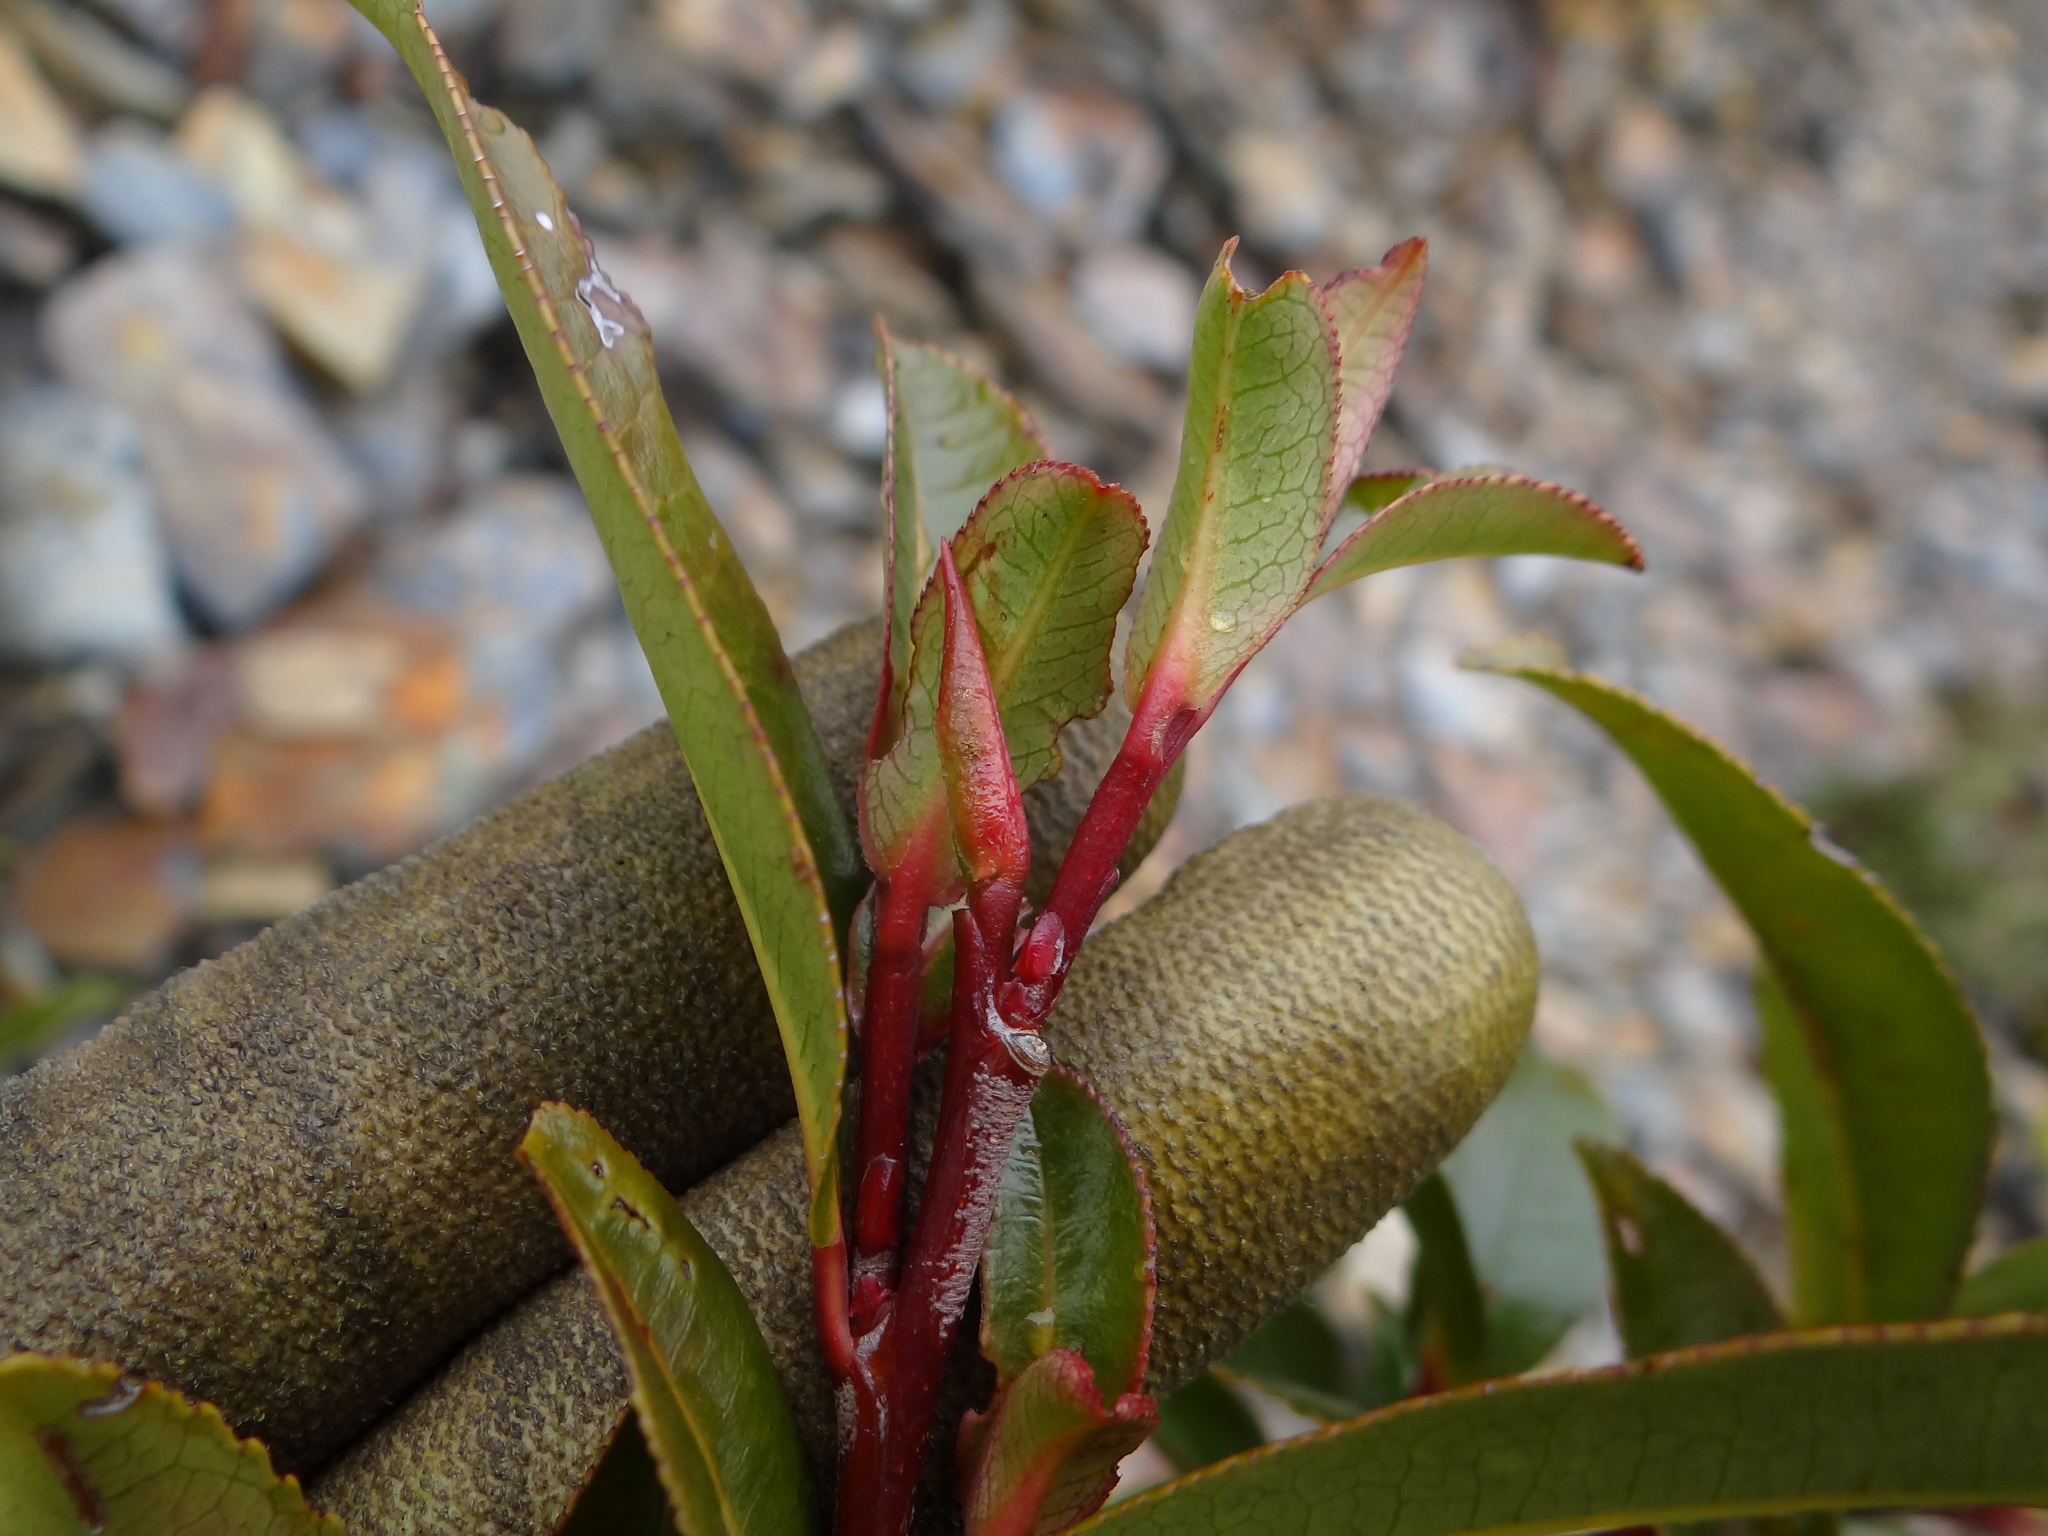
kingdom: Plantae
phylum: Tracheophyta
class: Magnoliopsida
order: Ericales
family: Pentaphylacaceae
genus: Eurya
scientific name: Eurya glaberrima
